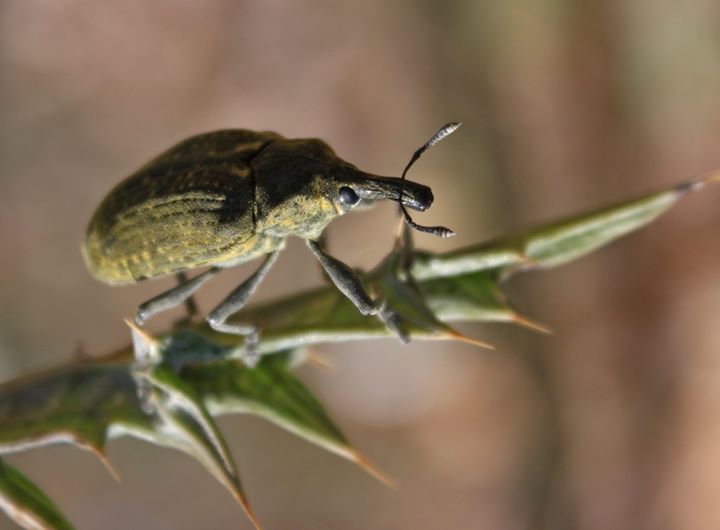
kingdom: Animalia
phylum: Arthropoda
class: Insecta
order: Coleoptera
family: Curculionidae
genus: Larinus
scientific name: Larinus latus
